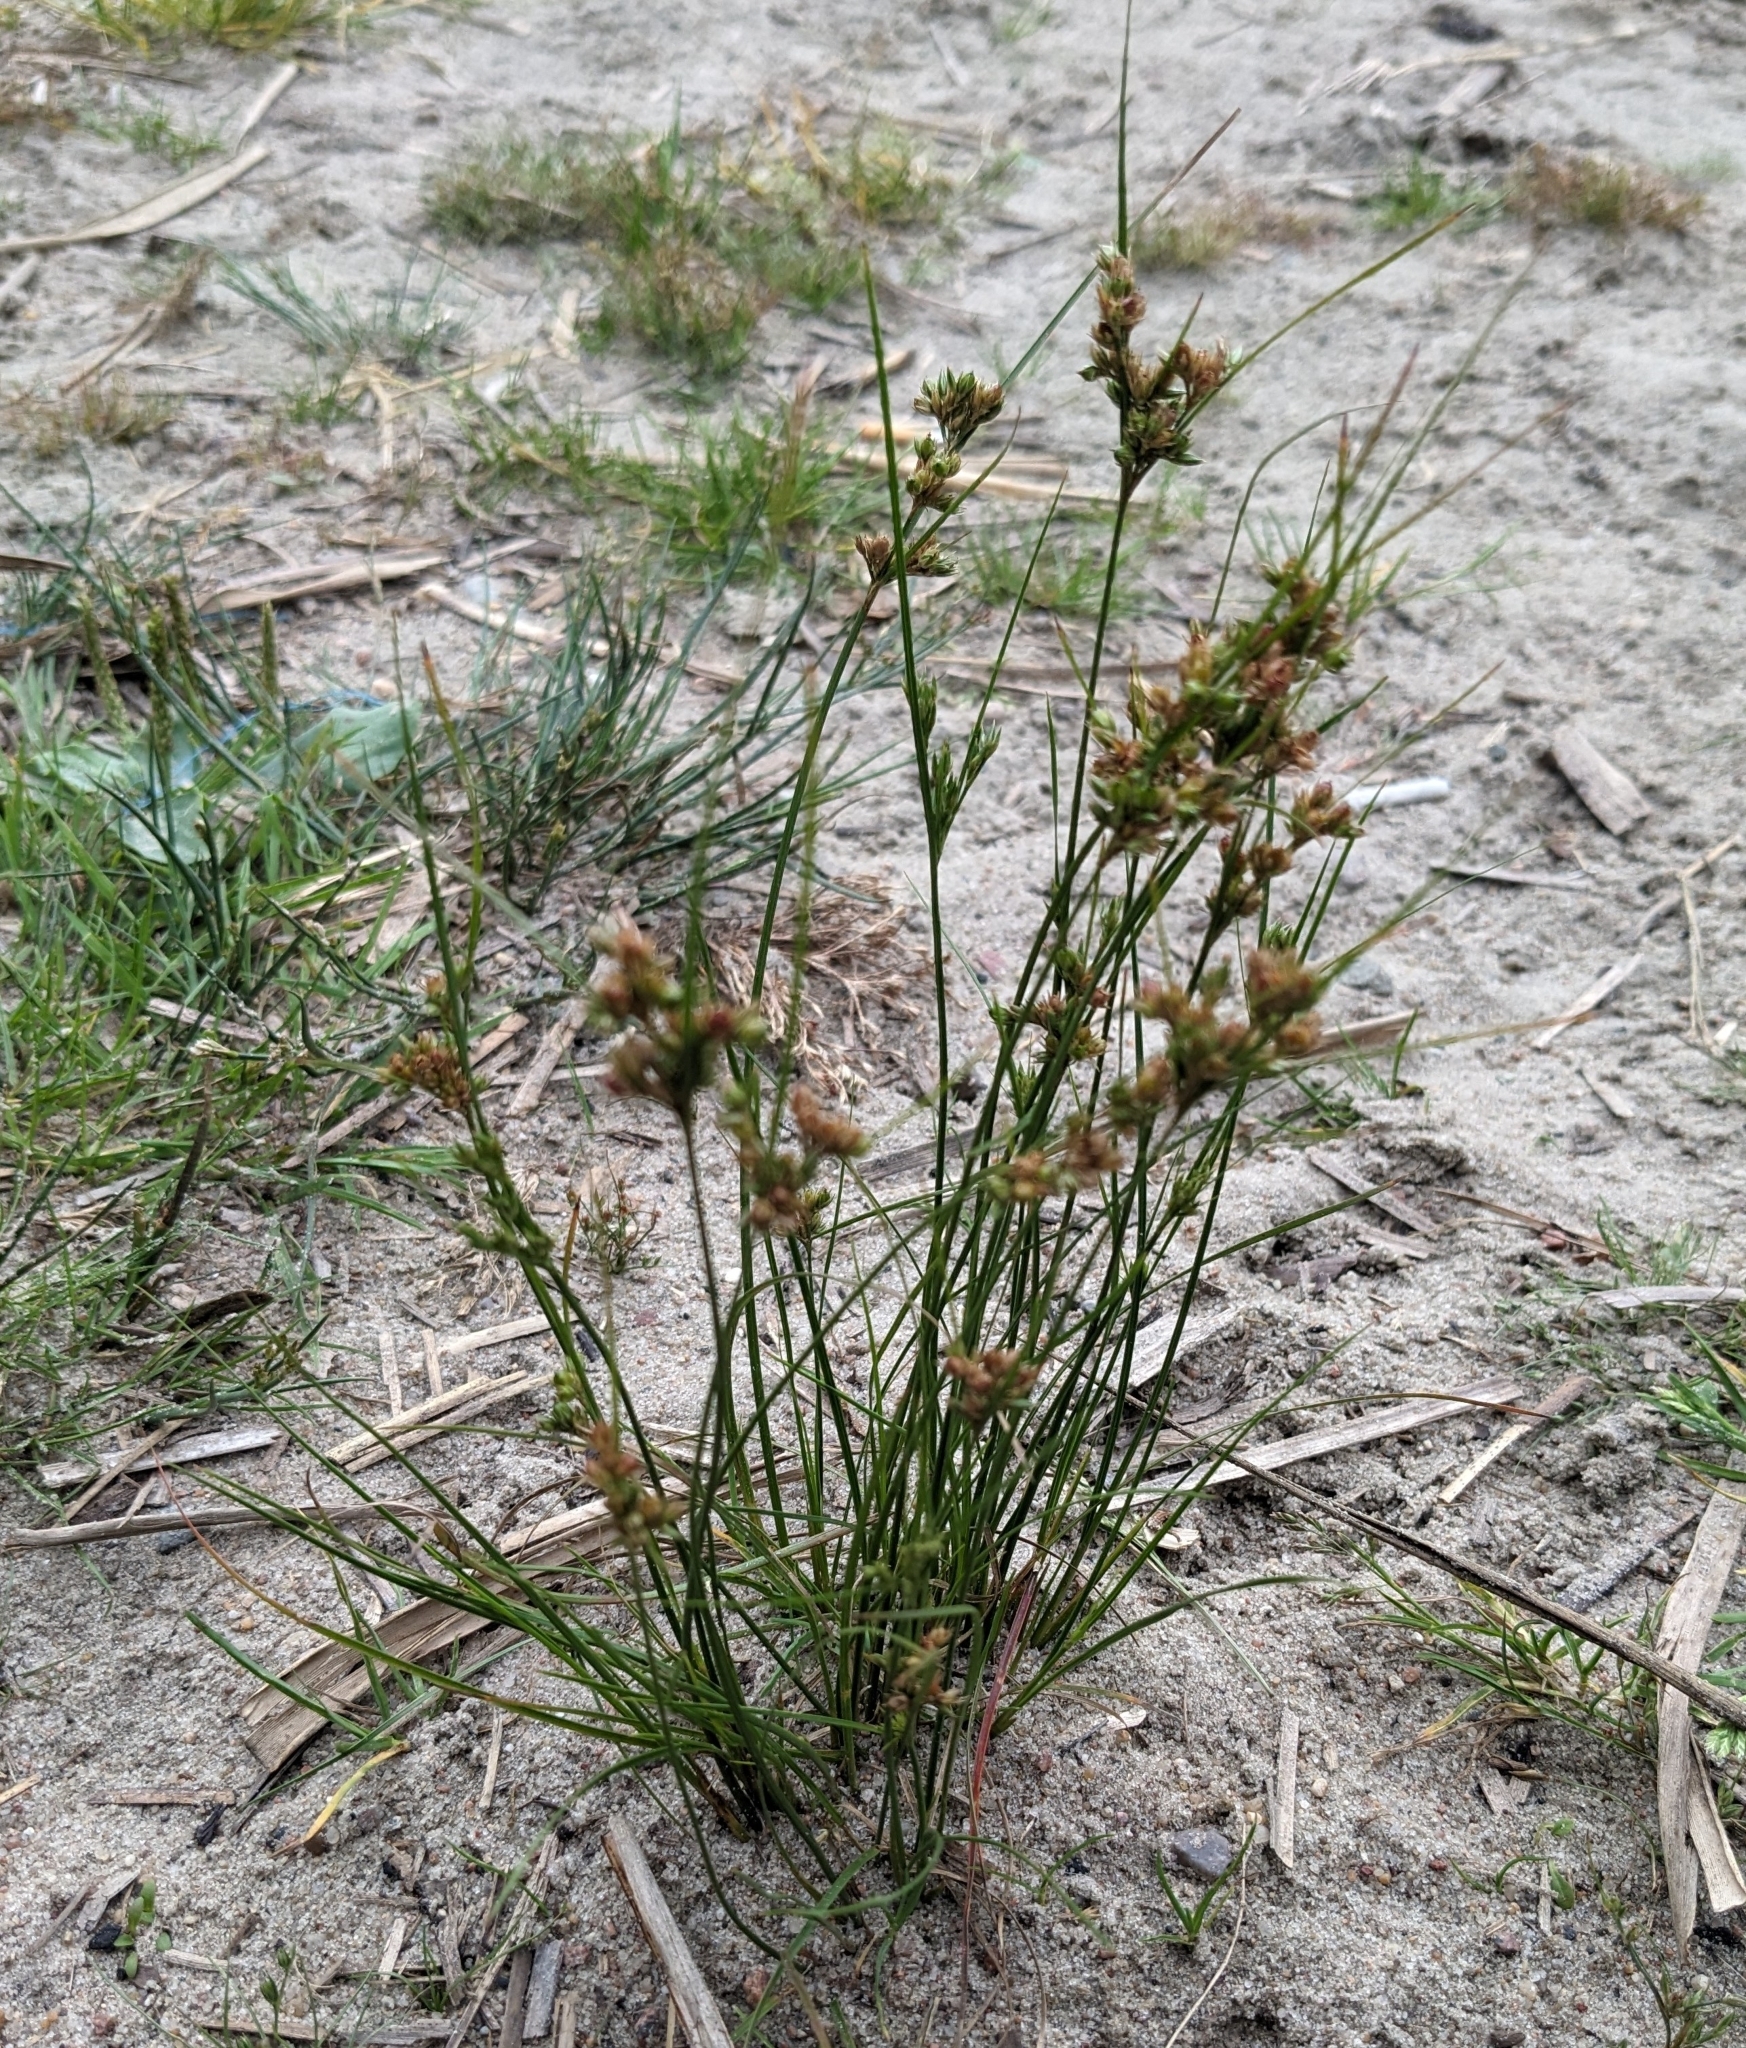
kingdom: Plantae
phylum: Tracheophyta
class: Liliopsida
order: Poales
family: Juncaceae
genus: Juncus
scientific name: Juncus tenuis
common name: Slender rush
